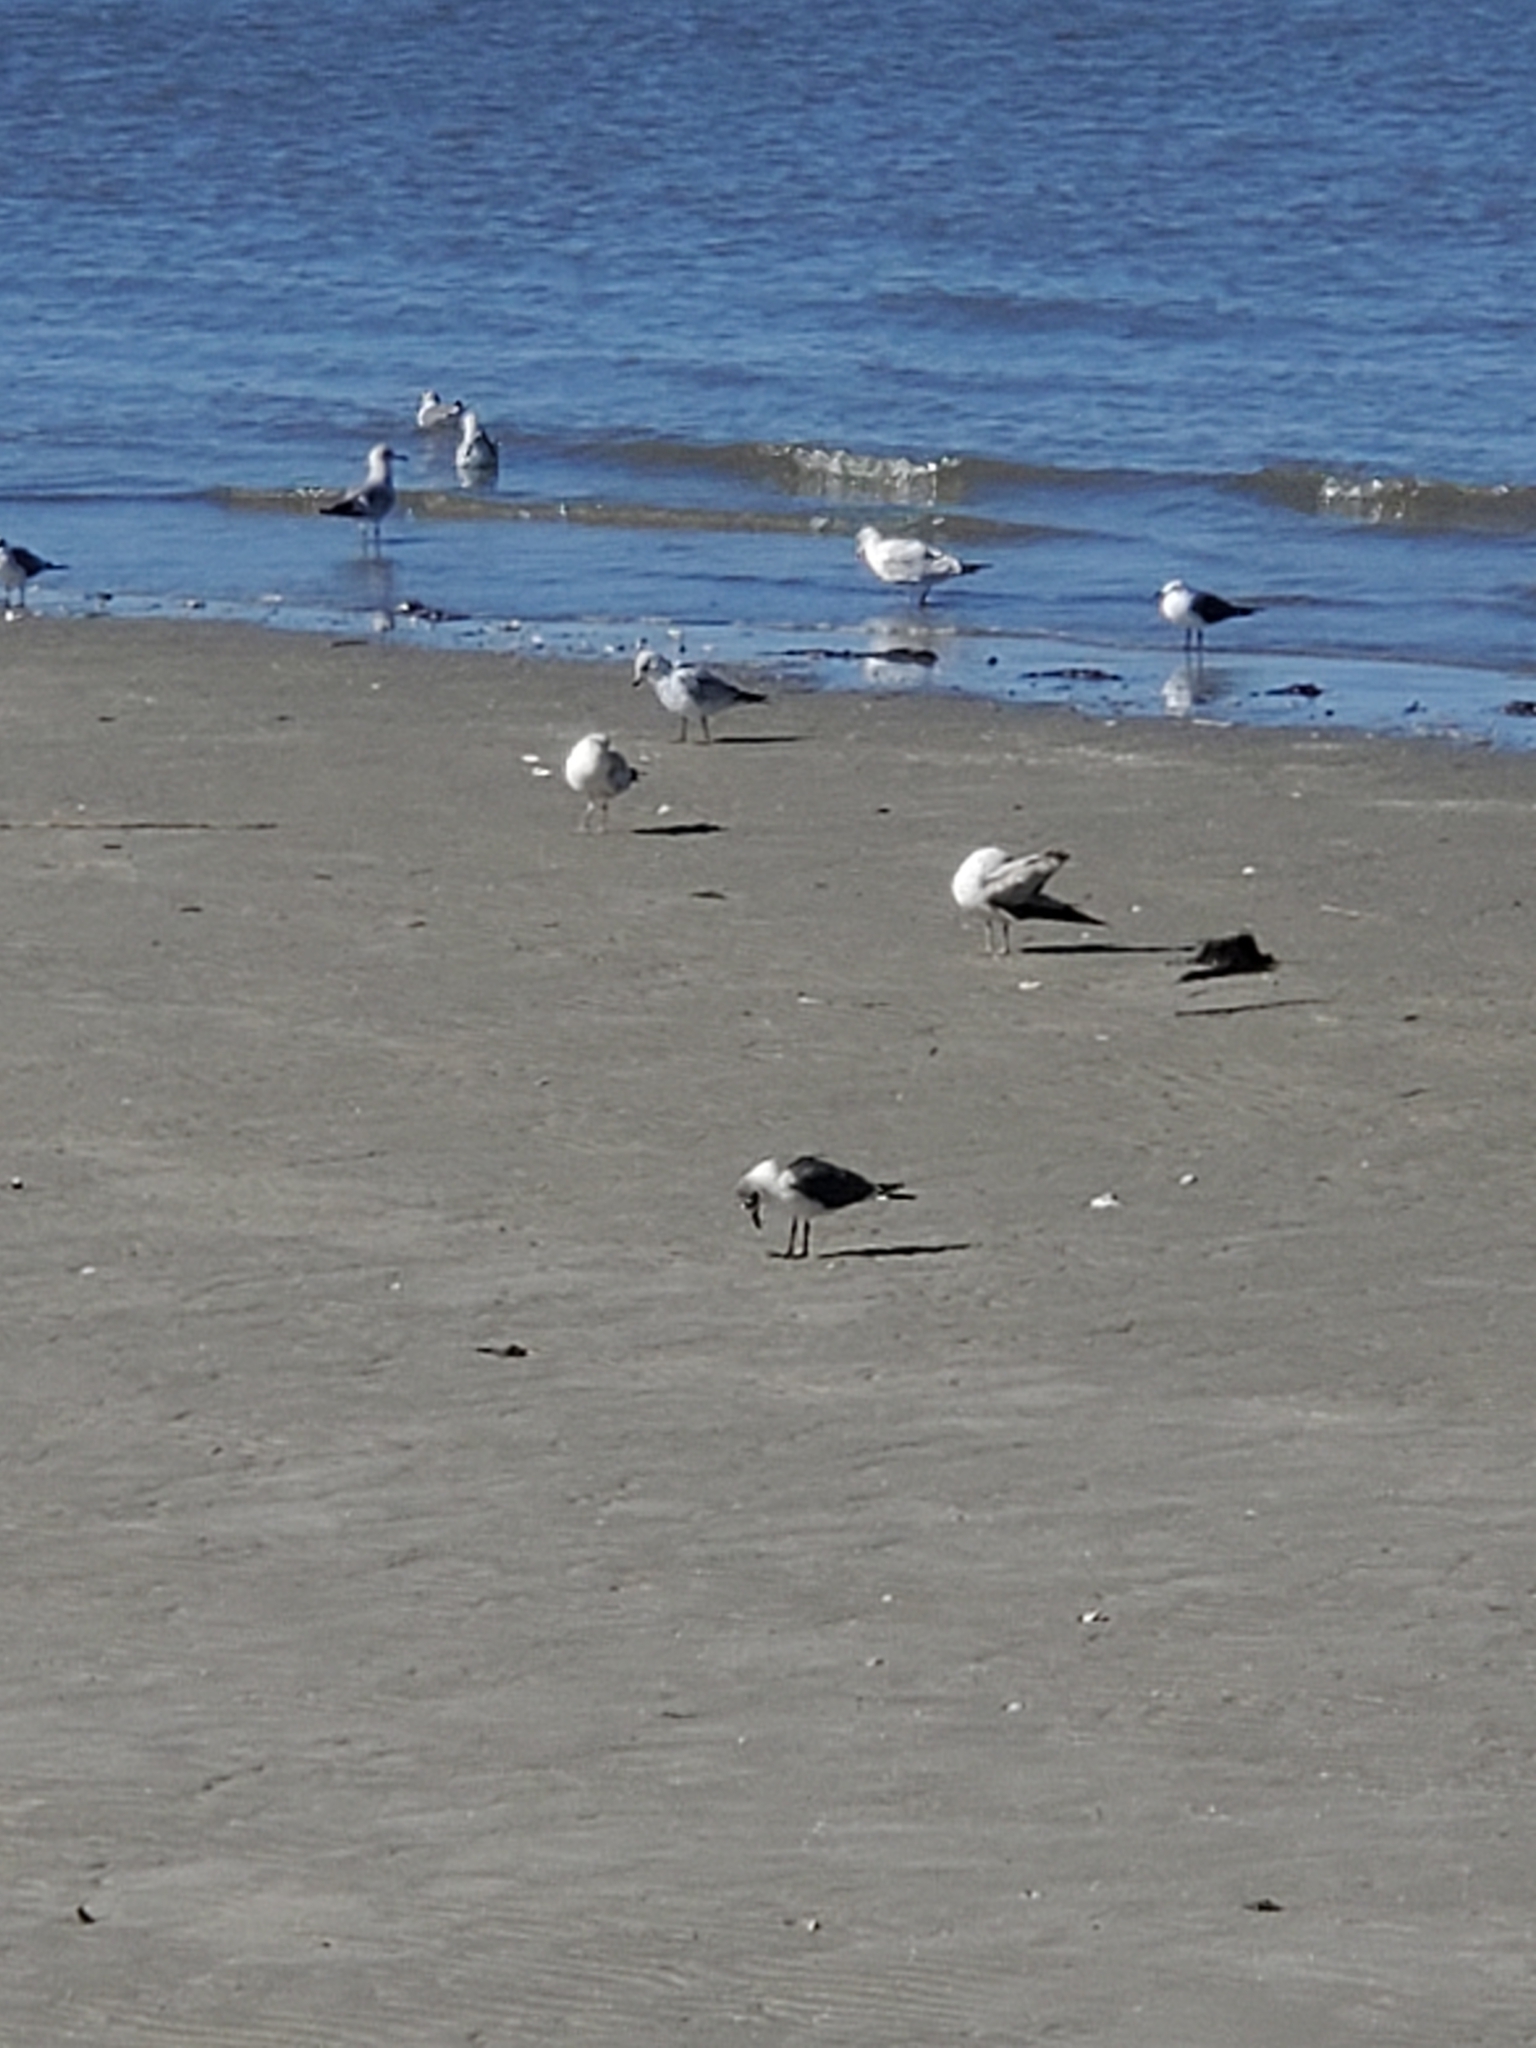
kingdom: Animalia
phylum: Chordata
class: Aves
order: Charadriiformes
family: Laridae
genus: Leucophaeus
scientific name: Leucophaeus atricilla
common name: Laughing gull
